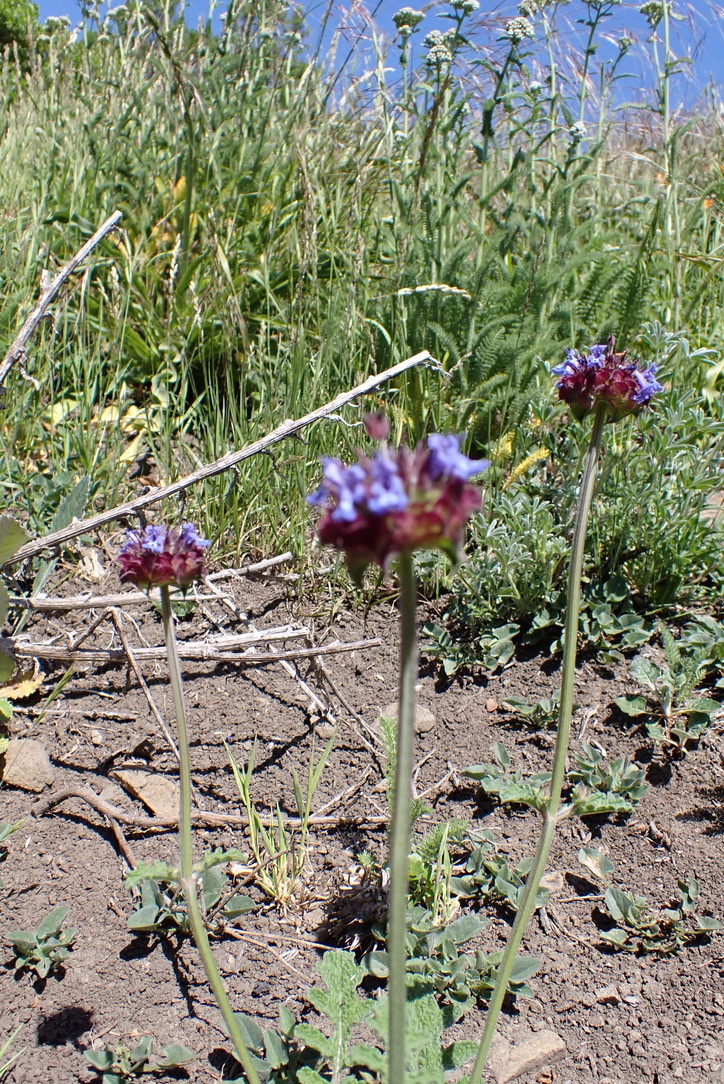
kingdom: Plantae
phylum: Tracheophyta
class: Magnoliopsida
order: Lamiales
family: Lamiaceae
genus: Salvia
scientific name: Salvia columbariae
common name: Chia
